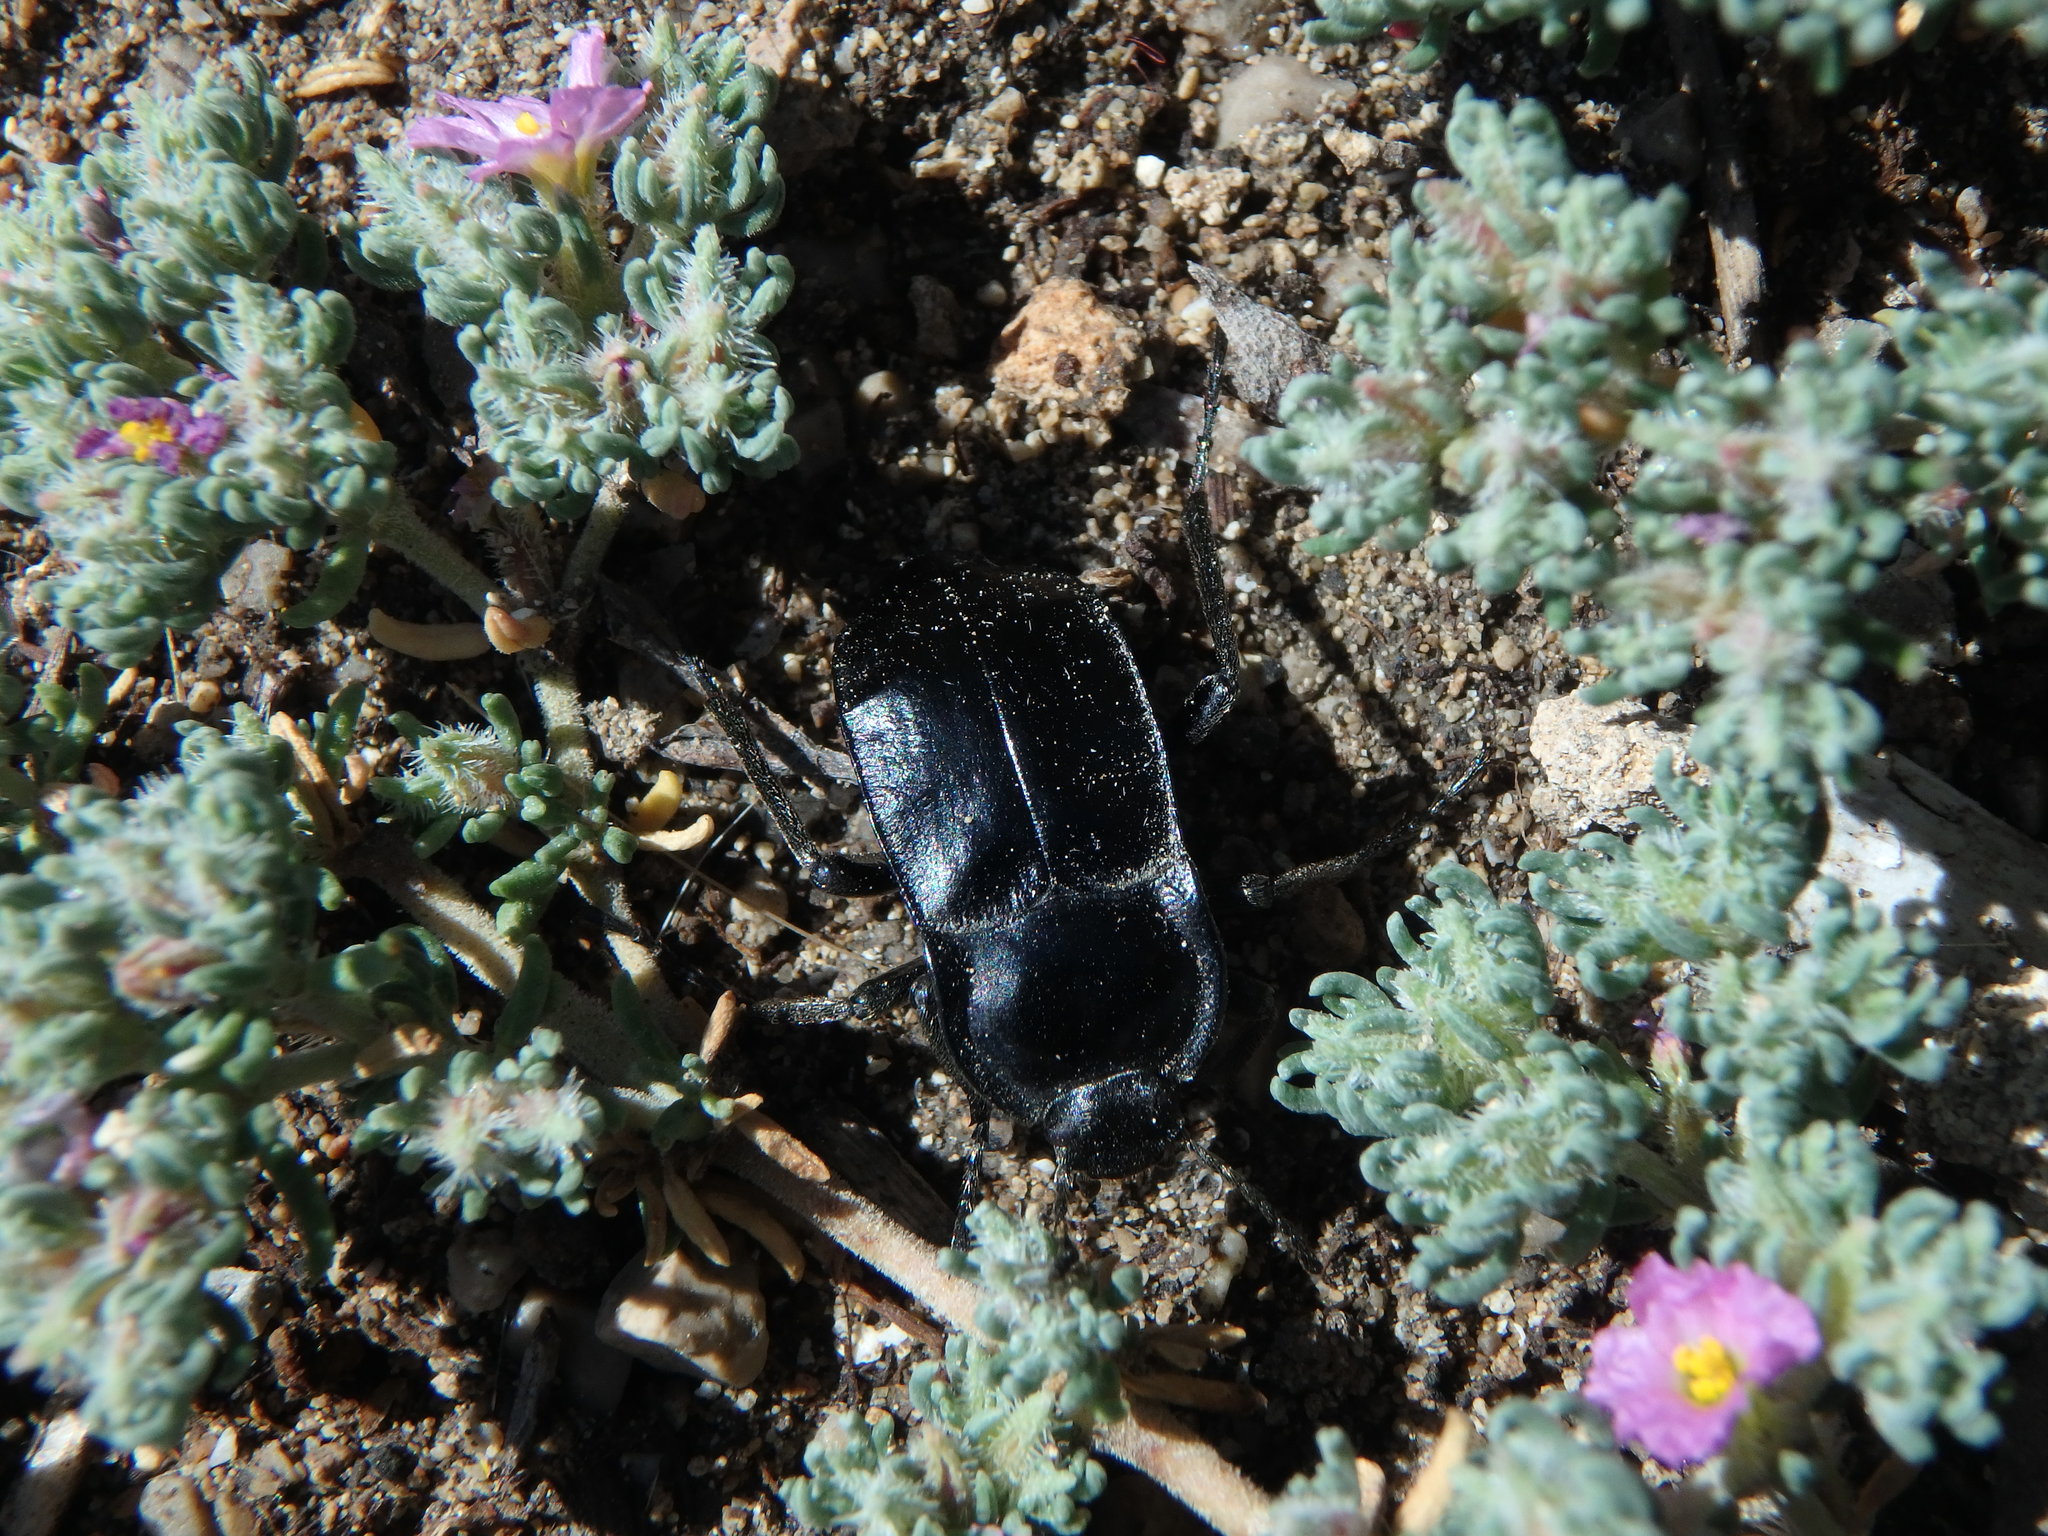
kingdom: Animalia
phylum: Arthropoda
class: Insecta
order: Coleoptera
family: Tenebrionidae
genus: Alphasida
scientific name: Alphasida depressa
